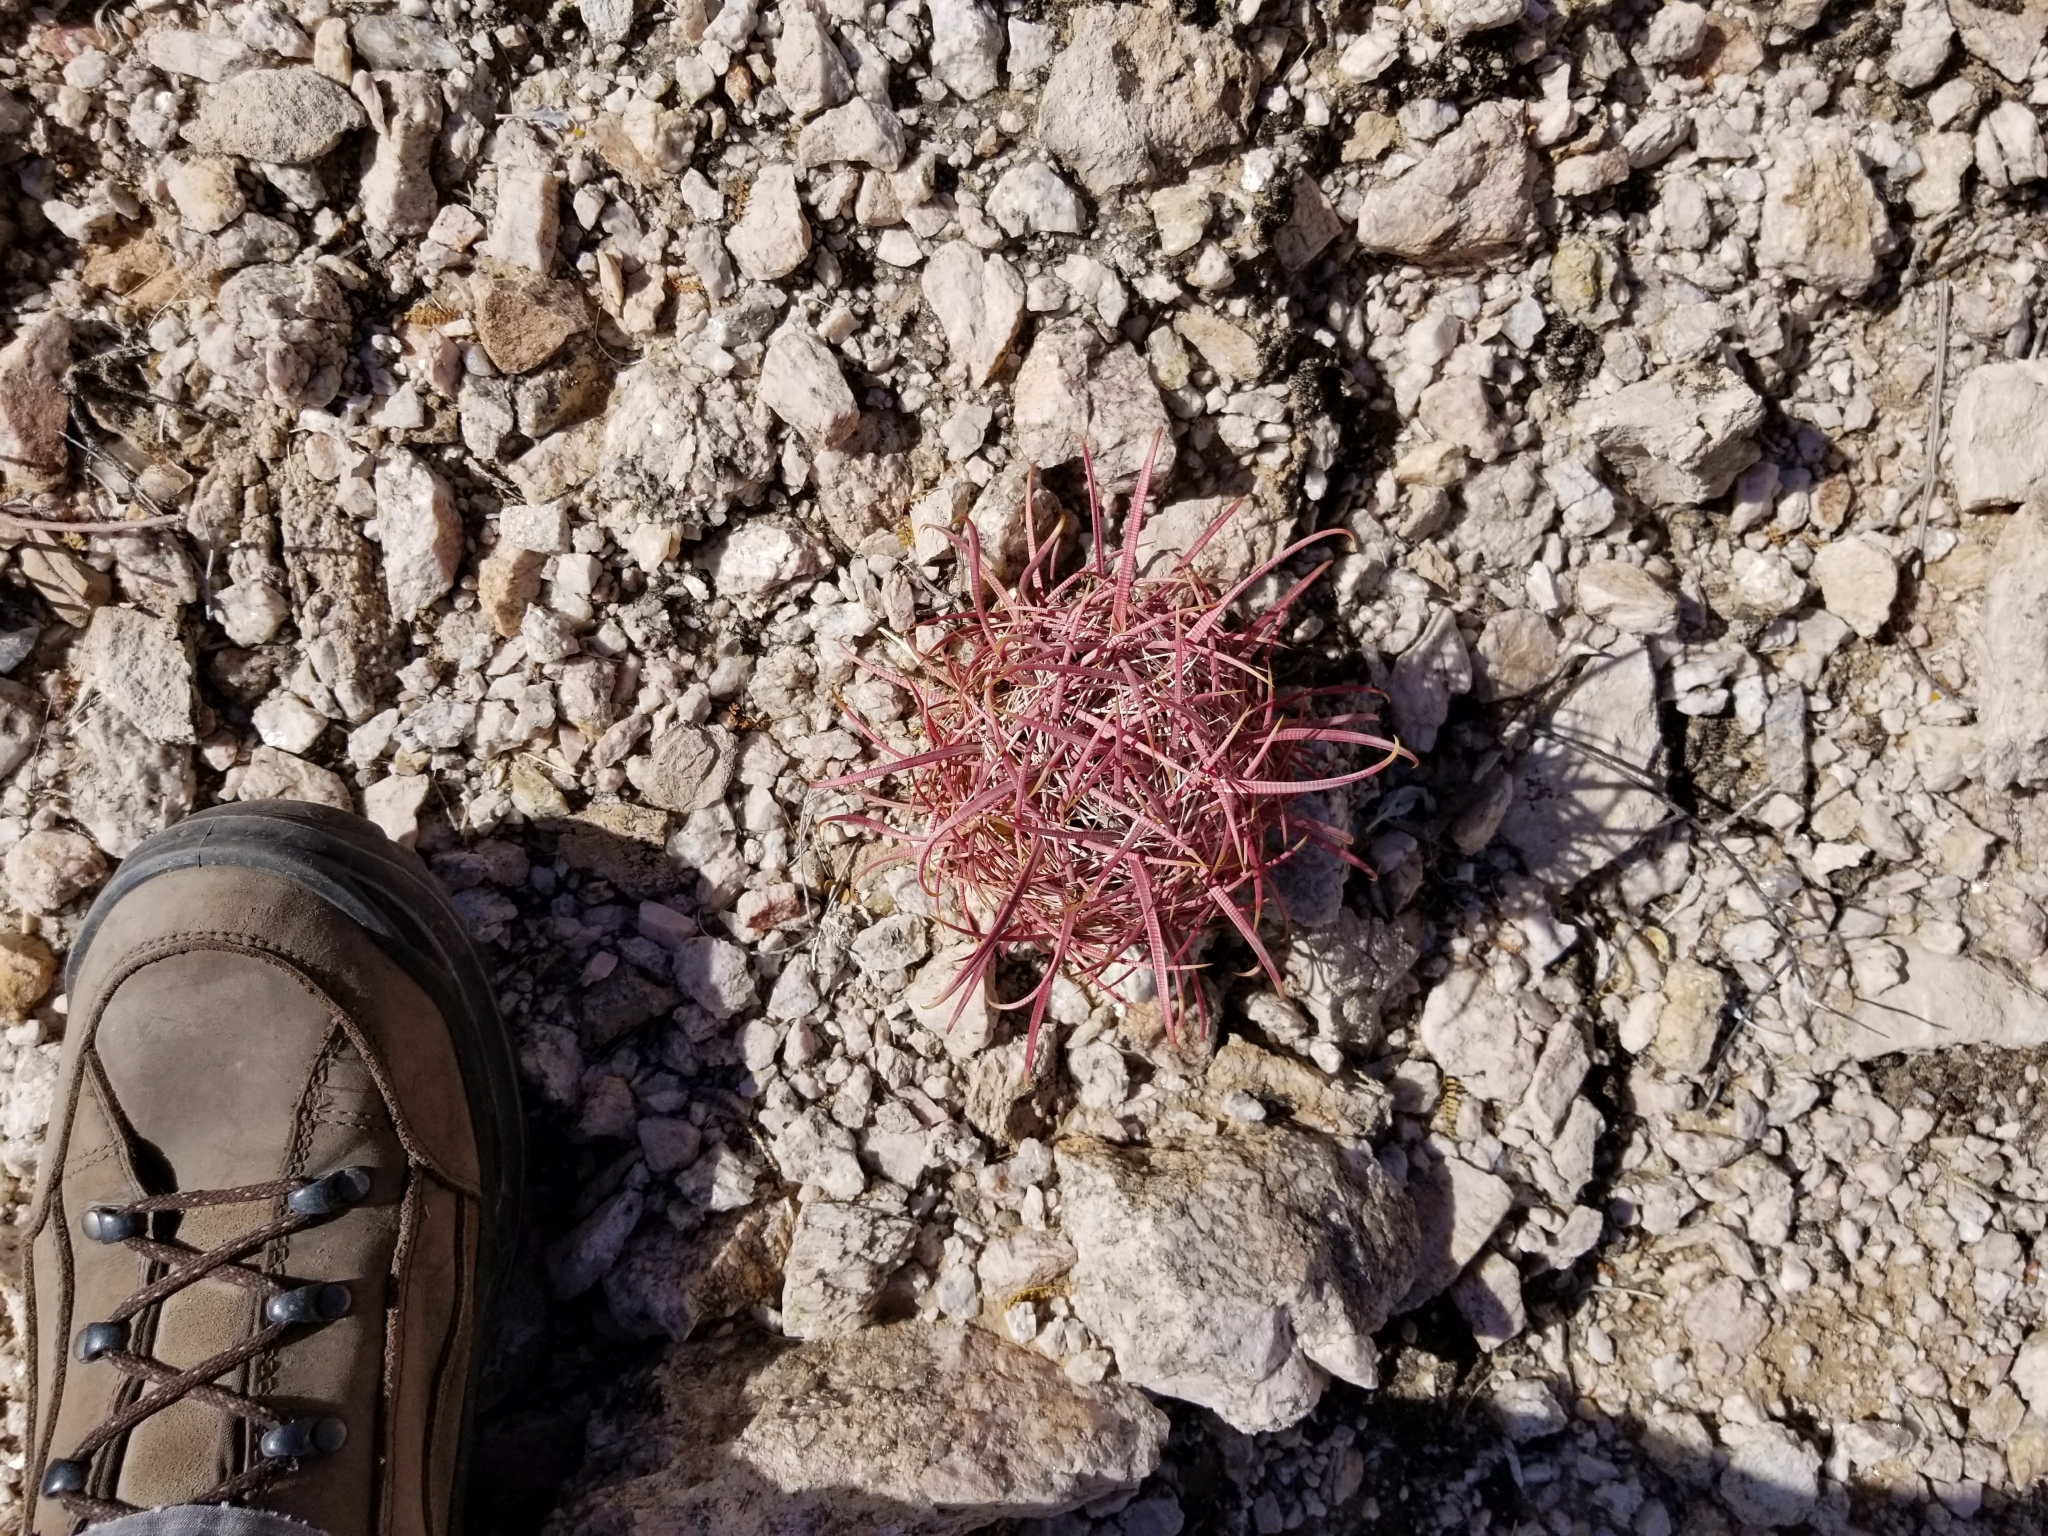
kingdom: Plantae
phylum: Tracheophyta
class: Magnoliopsida
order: Caryophyllales
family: Cactaceae
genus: Ferocactus
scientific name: Ferocactus cylindraceus
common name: California barrel cactus
